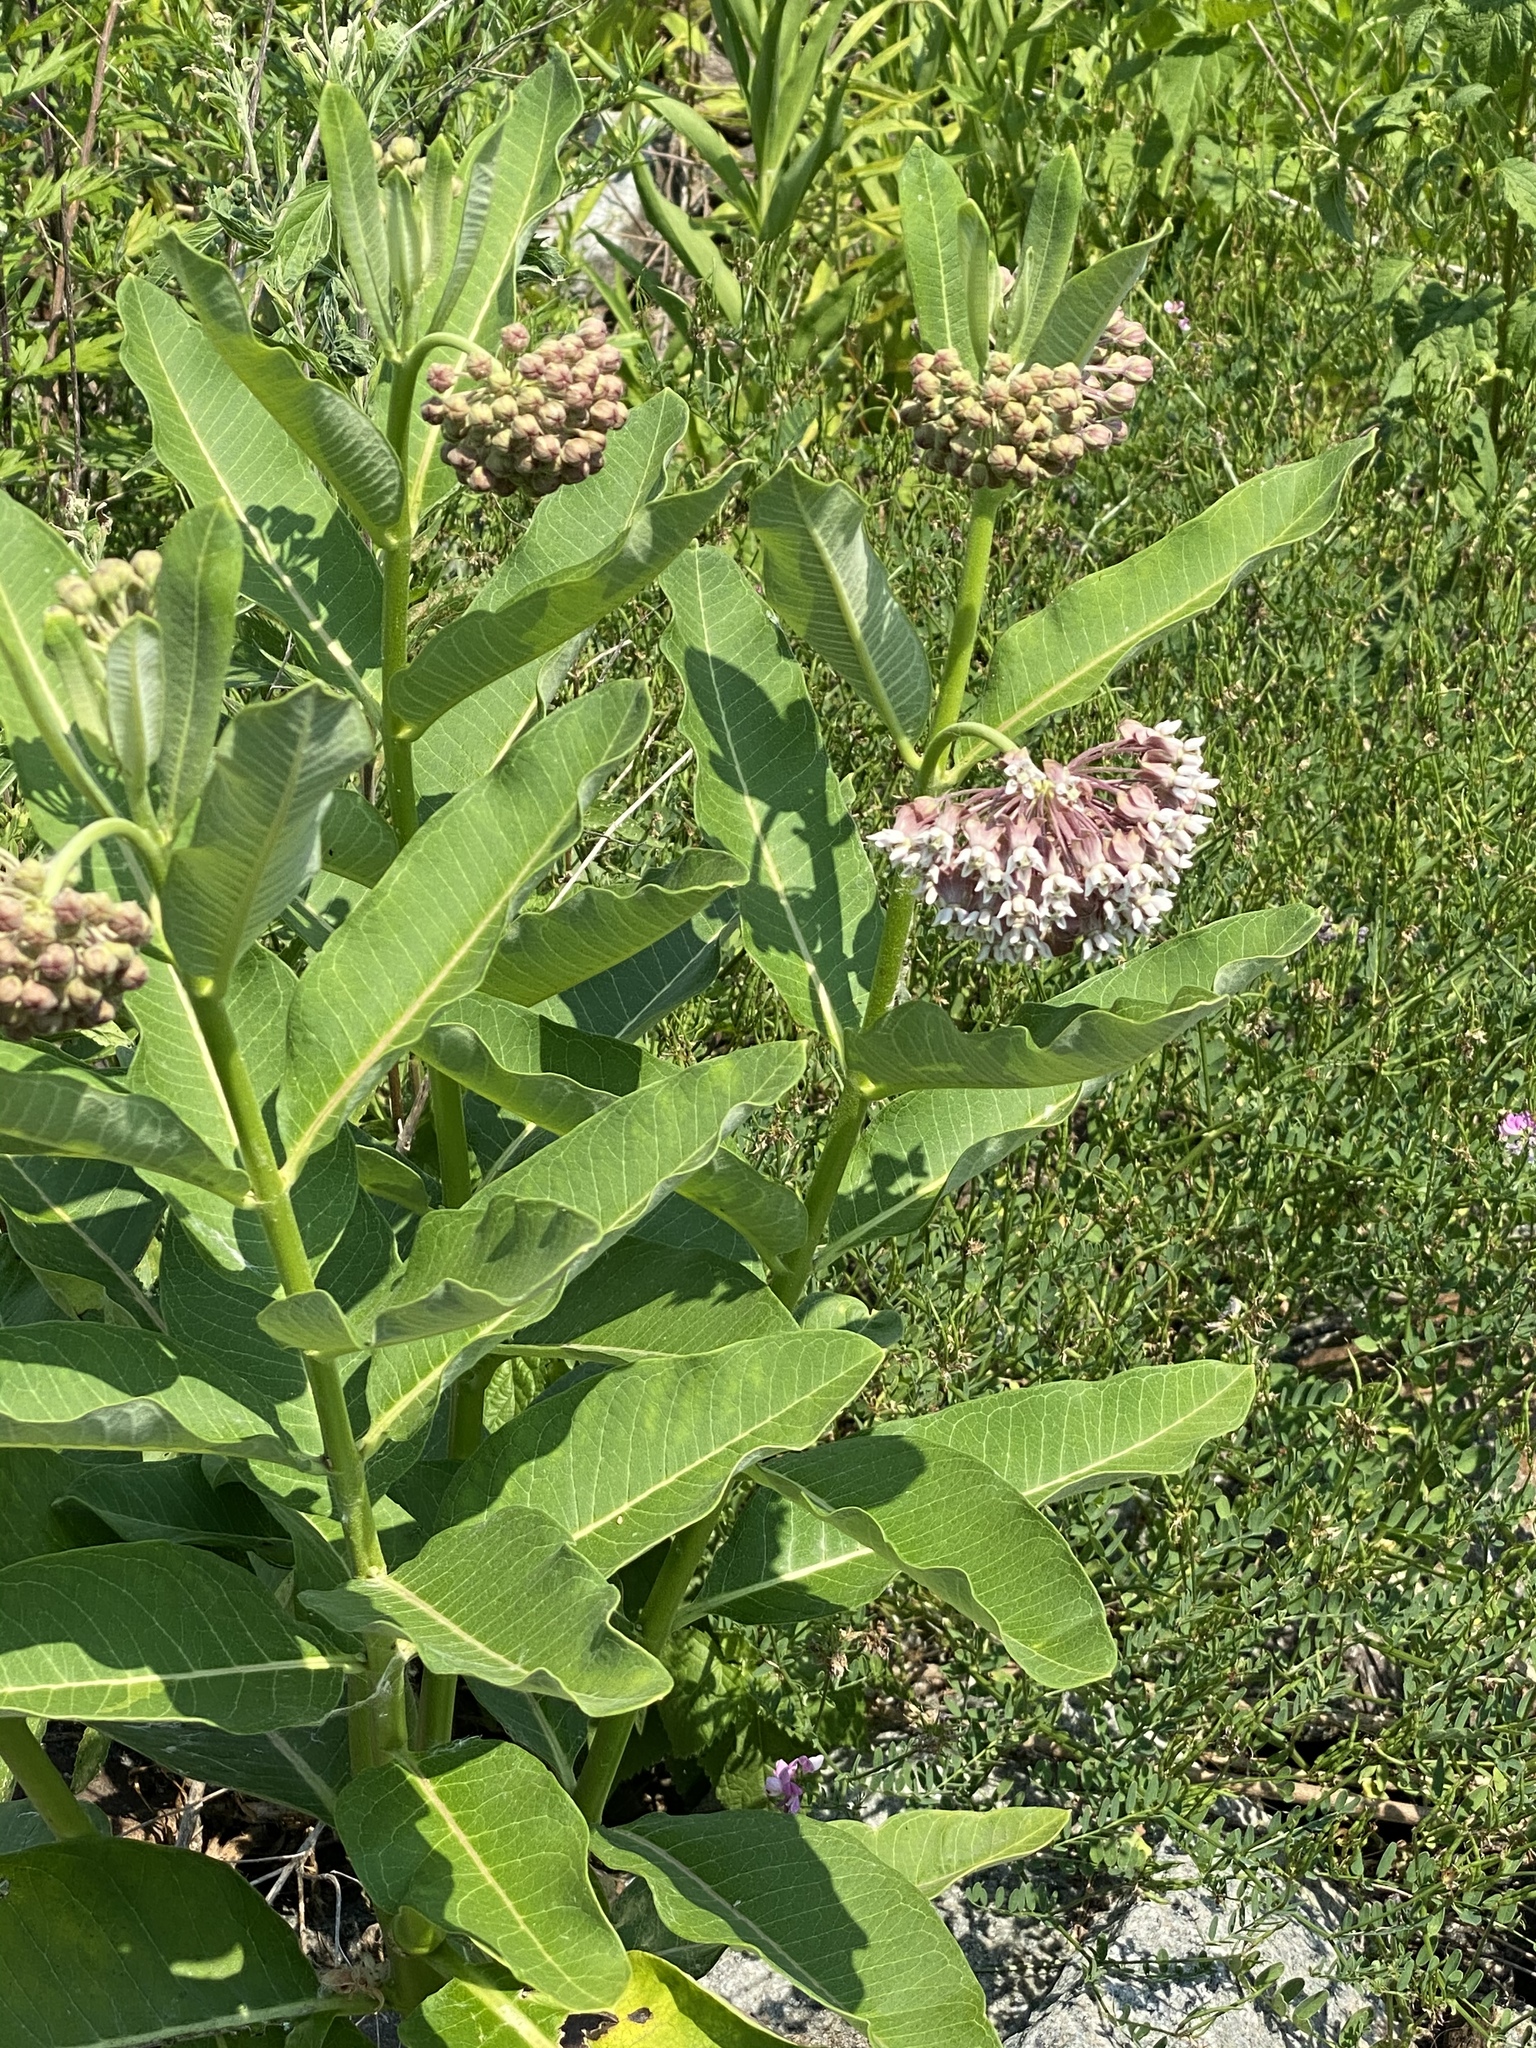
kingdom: Plantae
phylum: Tracheophyta
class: Magnoliopsida
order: Gentianales
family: Apocynaceae
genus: Asclepias
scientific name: Asclepias syriaca
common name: Common milkweed
